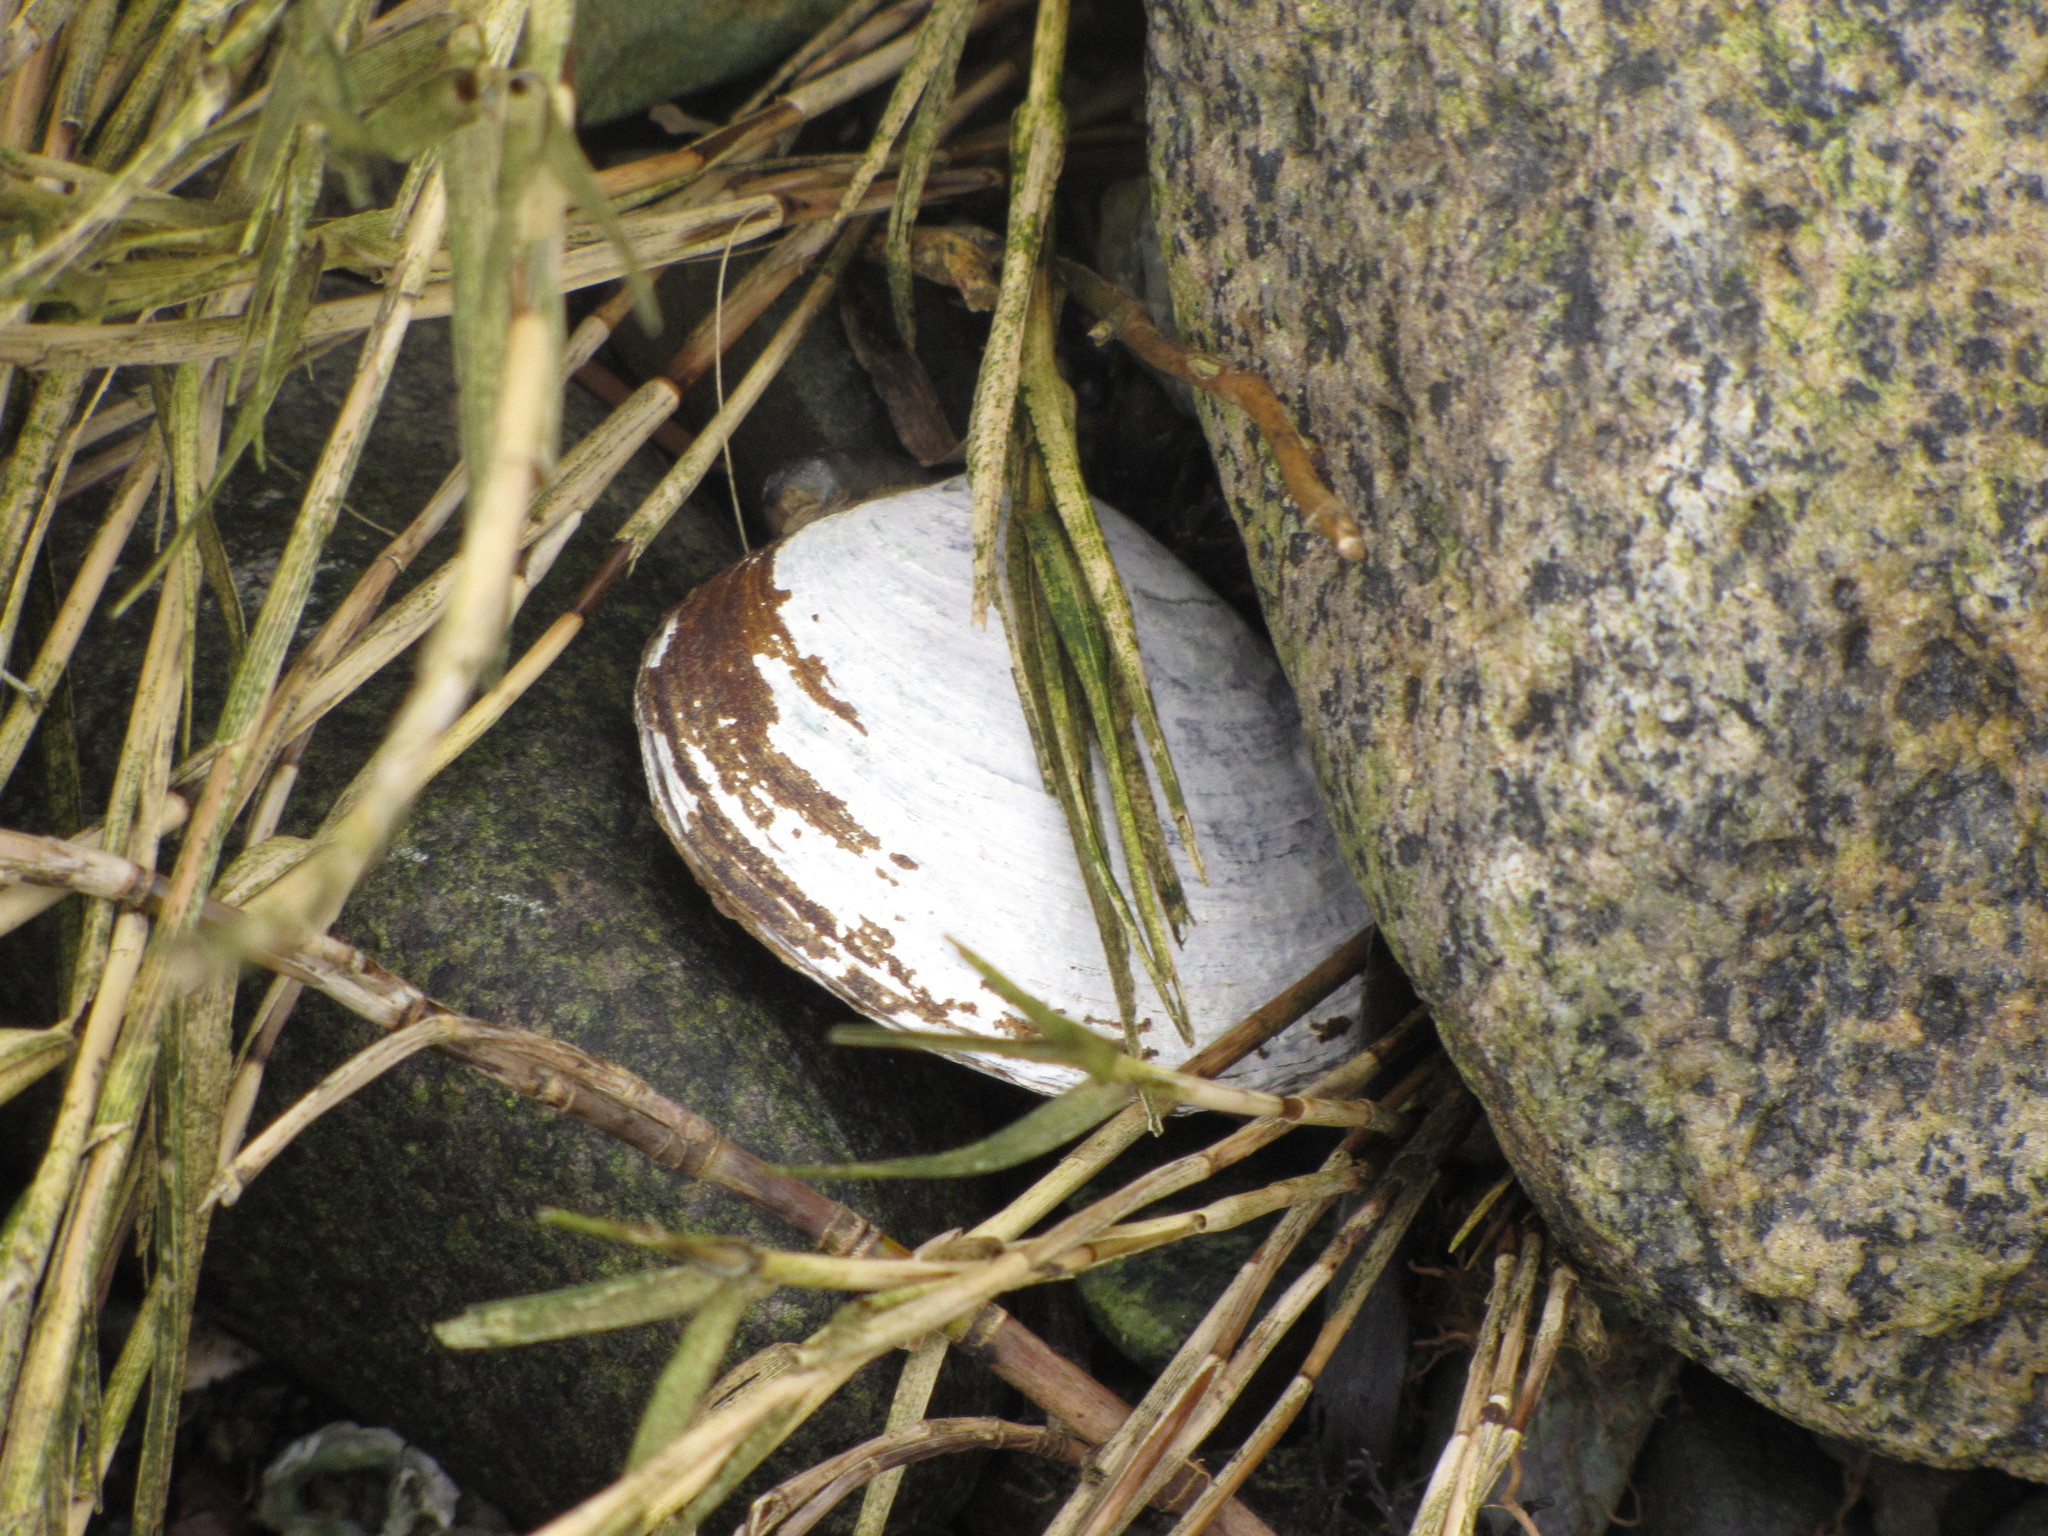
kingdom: Animalia
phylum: Mollusca
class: Bivalvia
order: Cardiida
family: Psammobiidae
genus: Nuttallia
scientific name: Nuttallia obscurata
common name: Purple mahogany-clam
